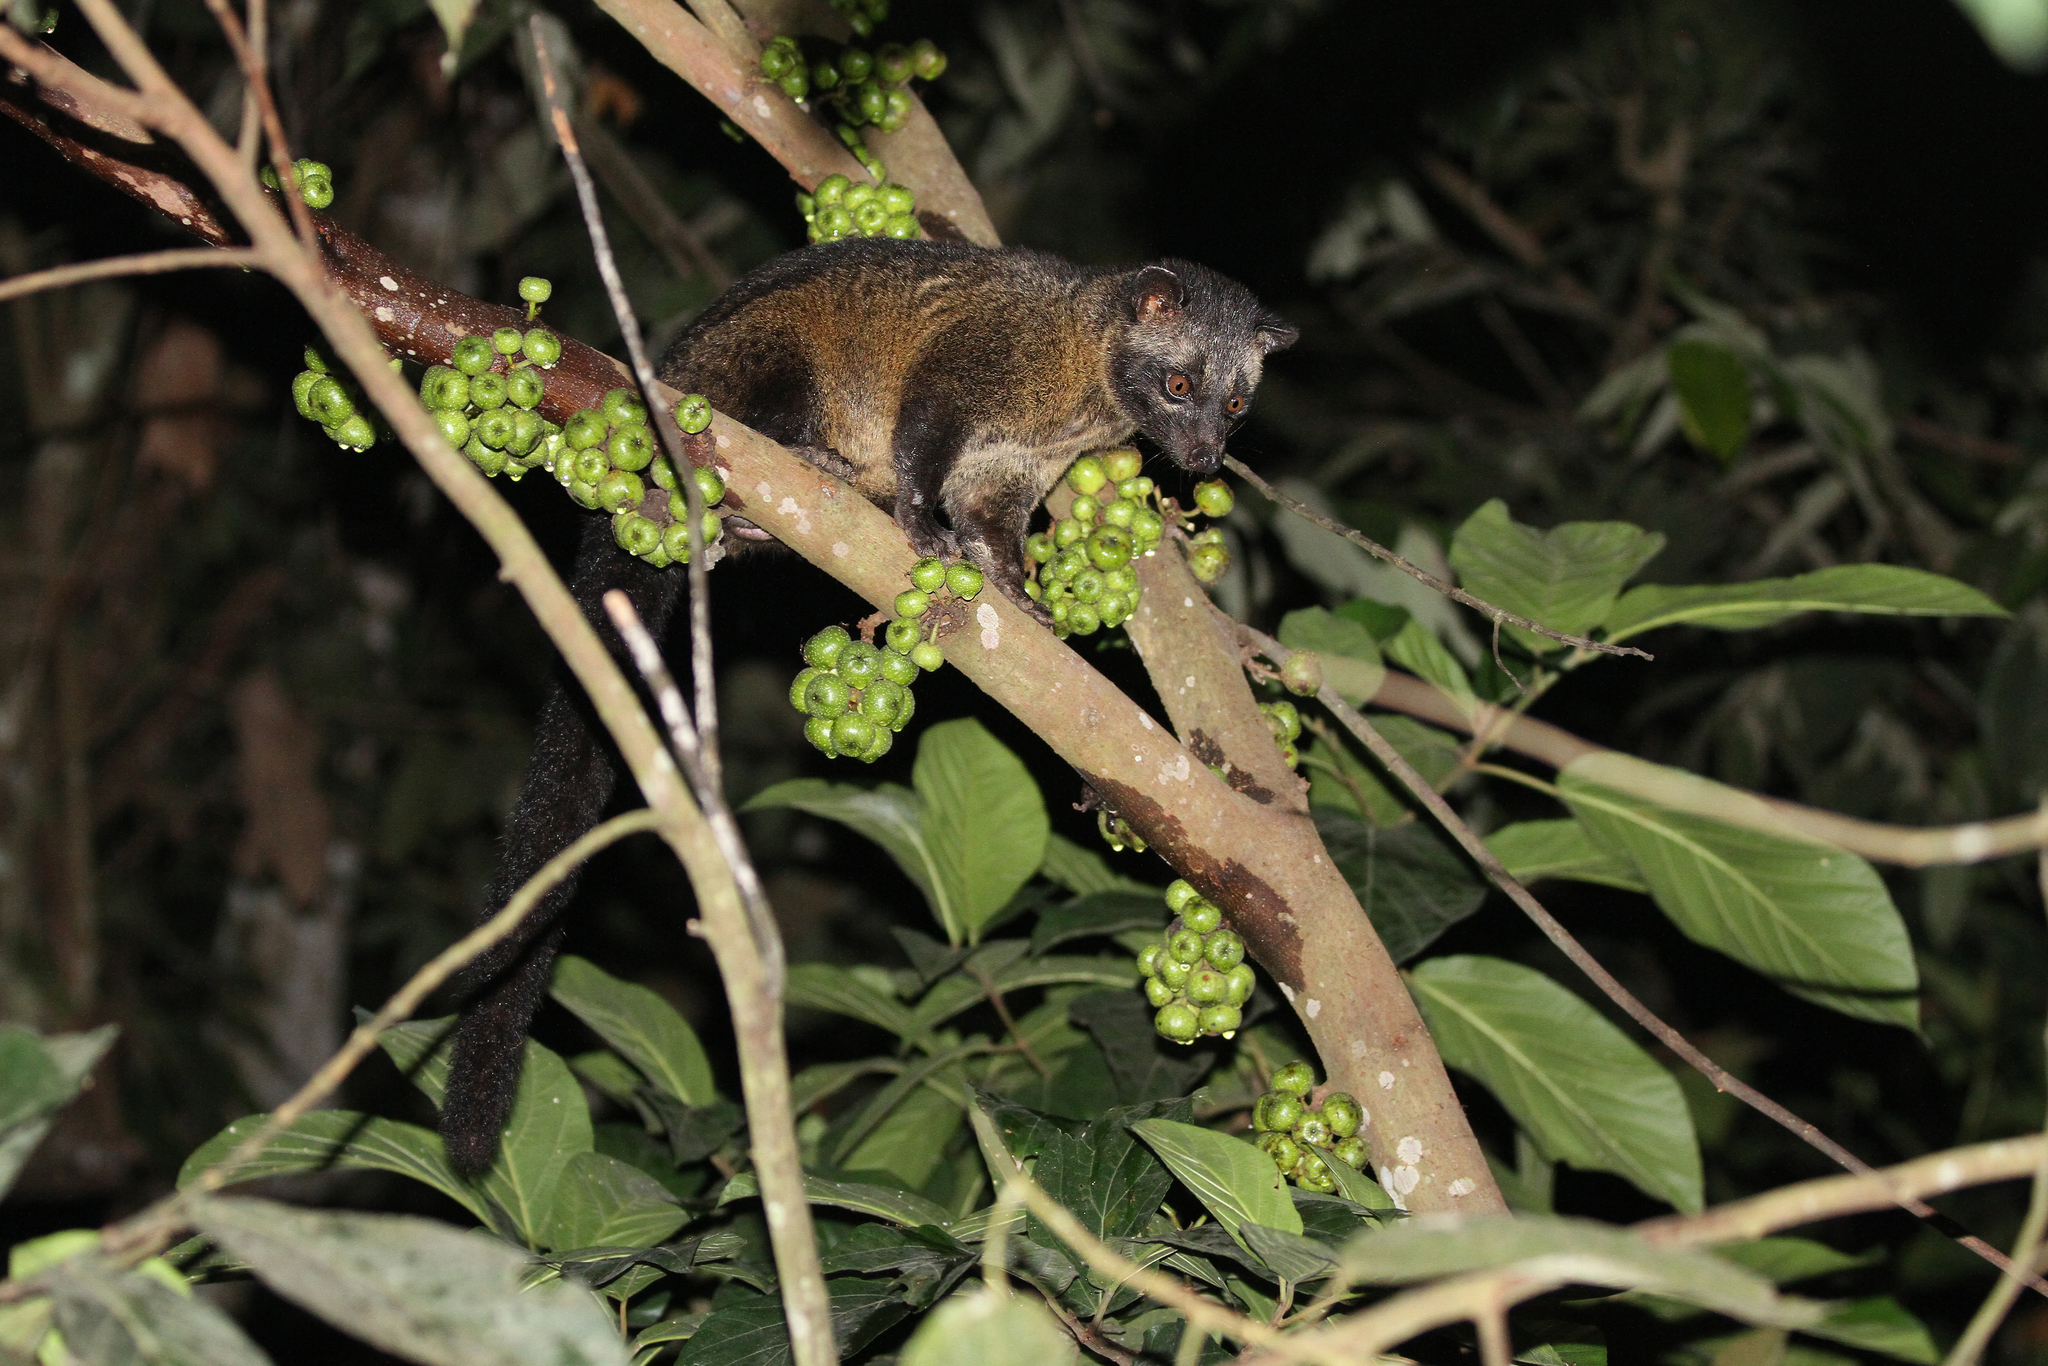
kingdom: Animalia
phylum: Chordata
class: Mammalia
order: Carnivora
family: Viverridae
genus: Paradoxurus
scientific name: Paradoxurus hermaphroditus
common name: Common palm civet
